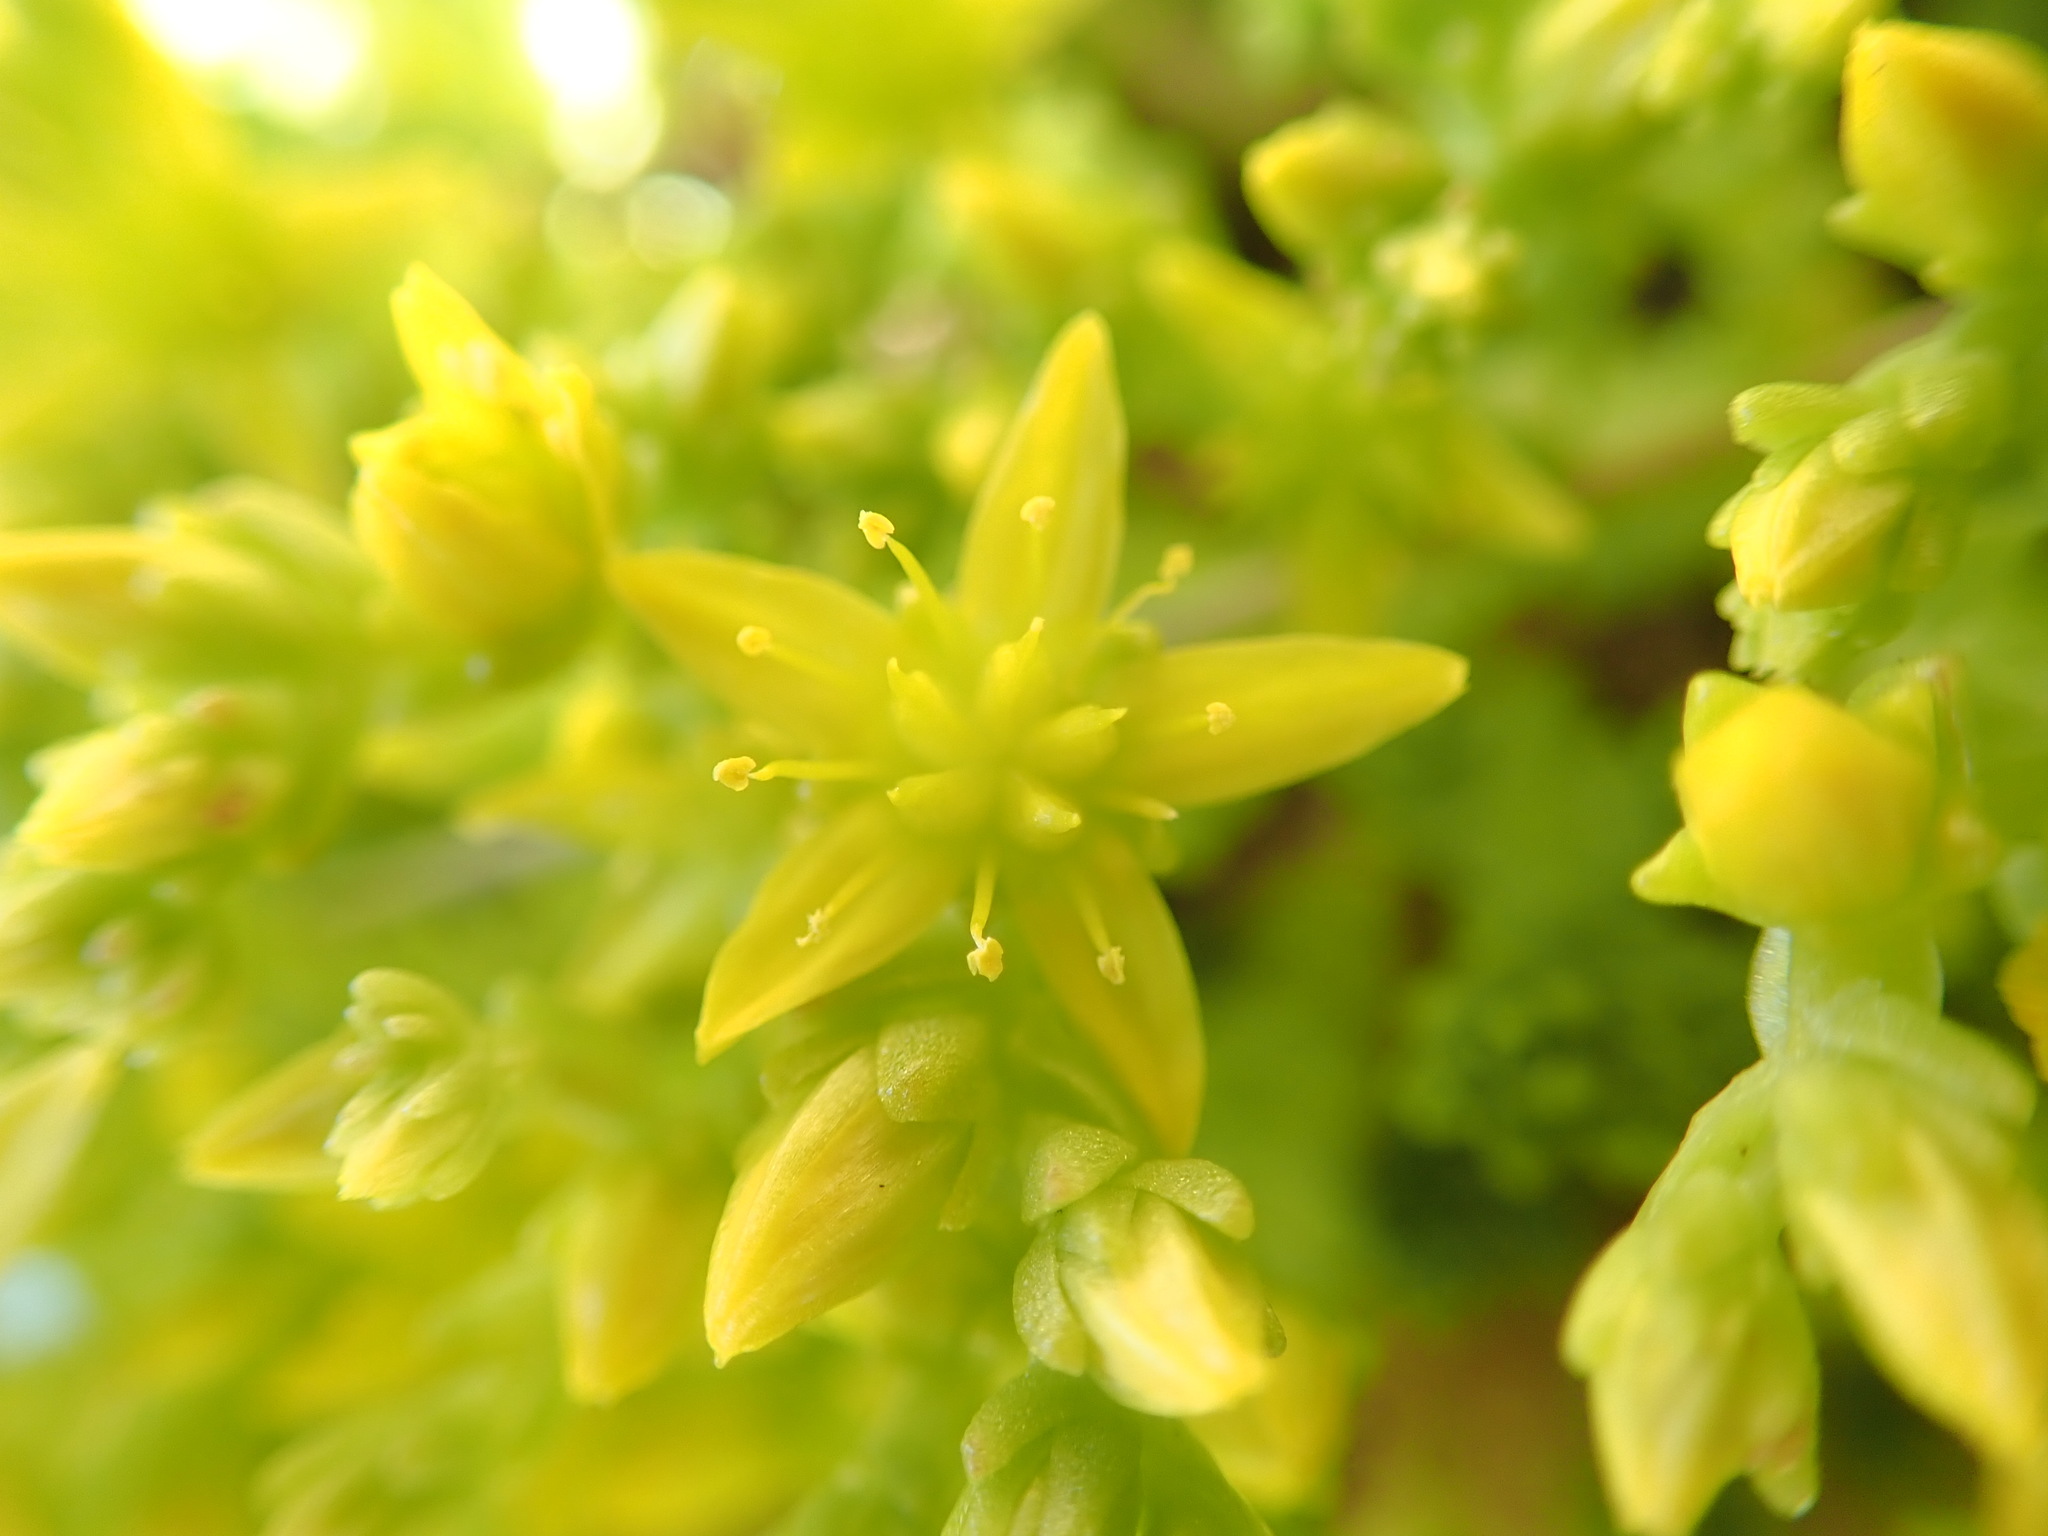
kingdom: Plantae
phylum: Tracheophyta
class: Magnoliopsida
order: Saxifragales
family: Crassulaceae
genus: Sedum
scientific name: Sedum acre
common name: Biting stonecrop
